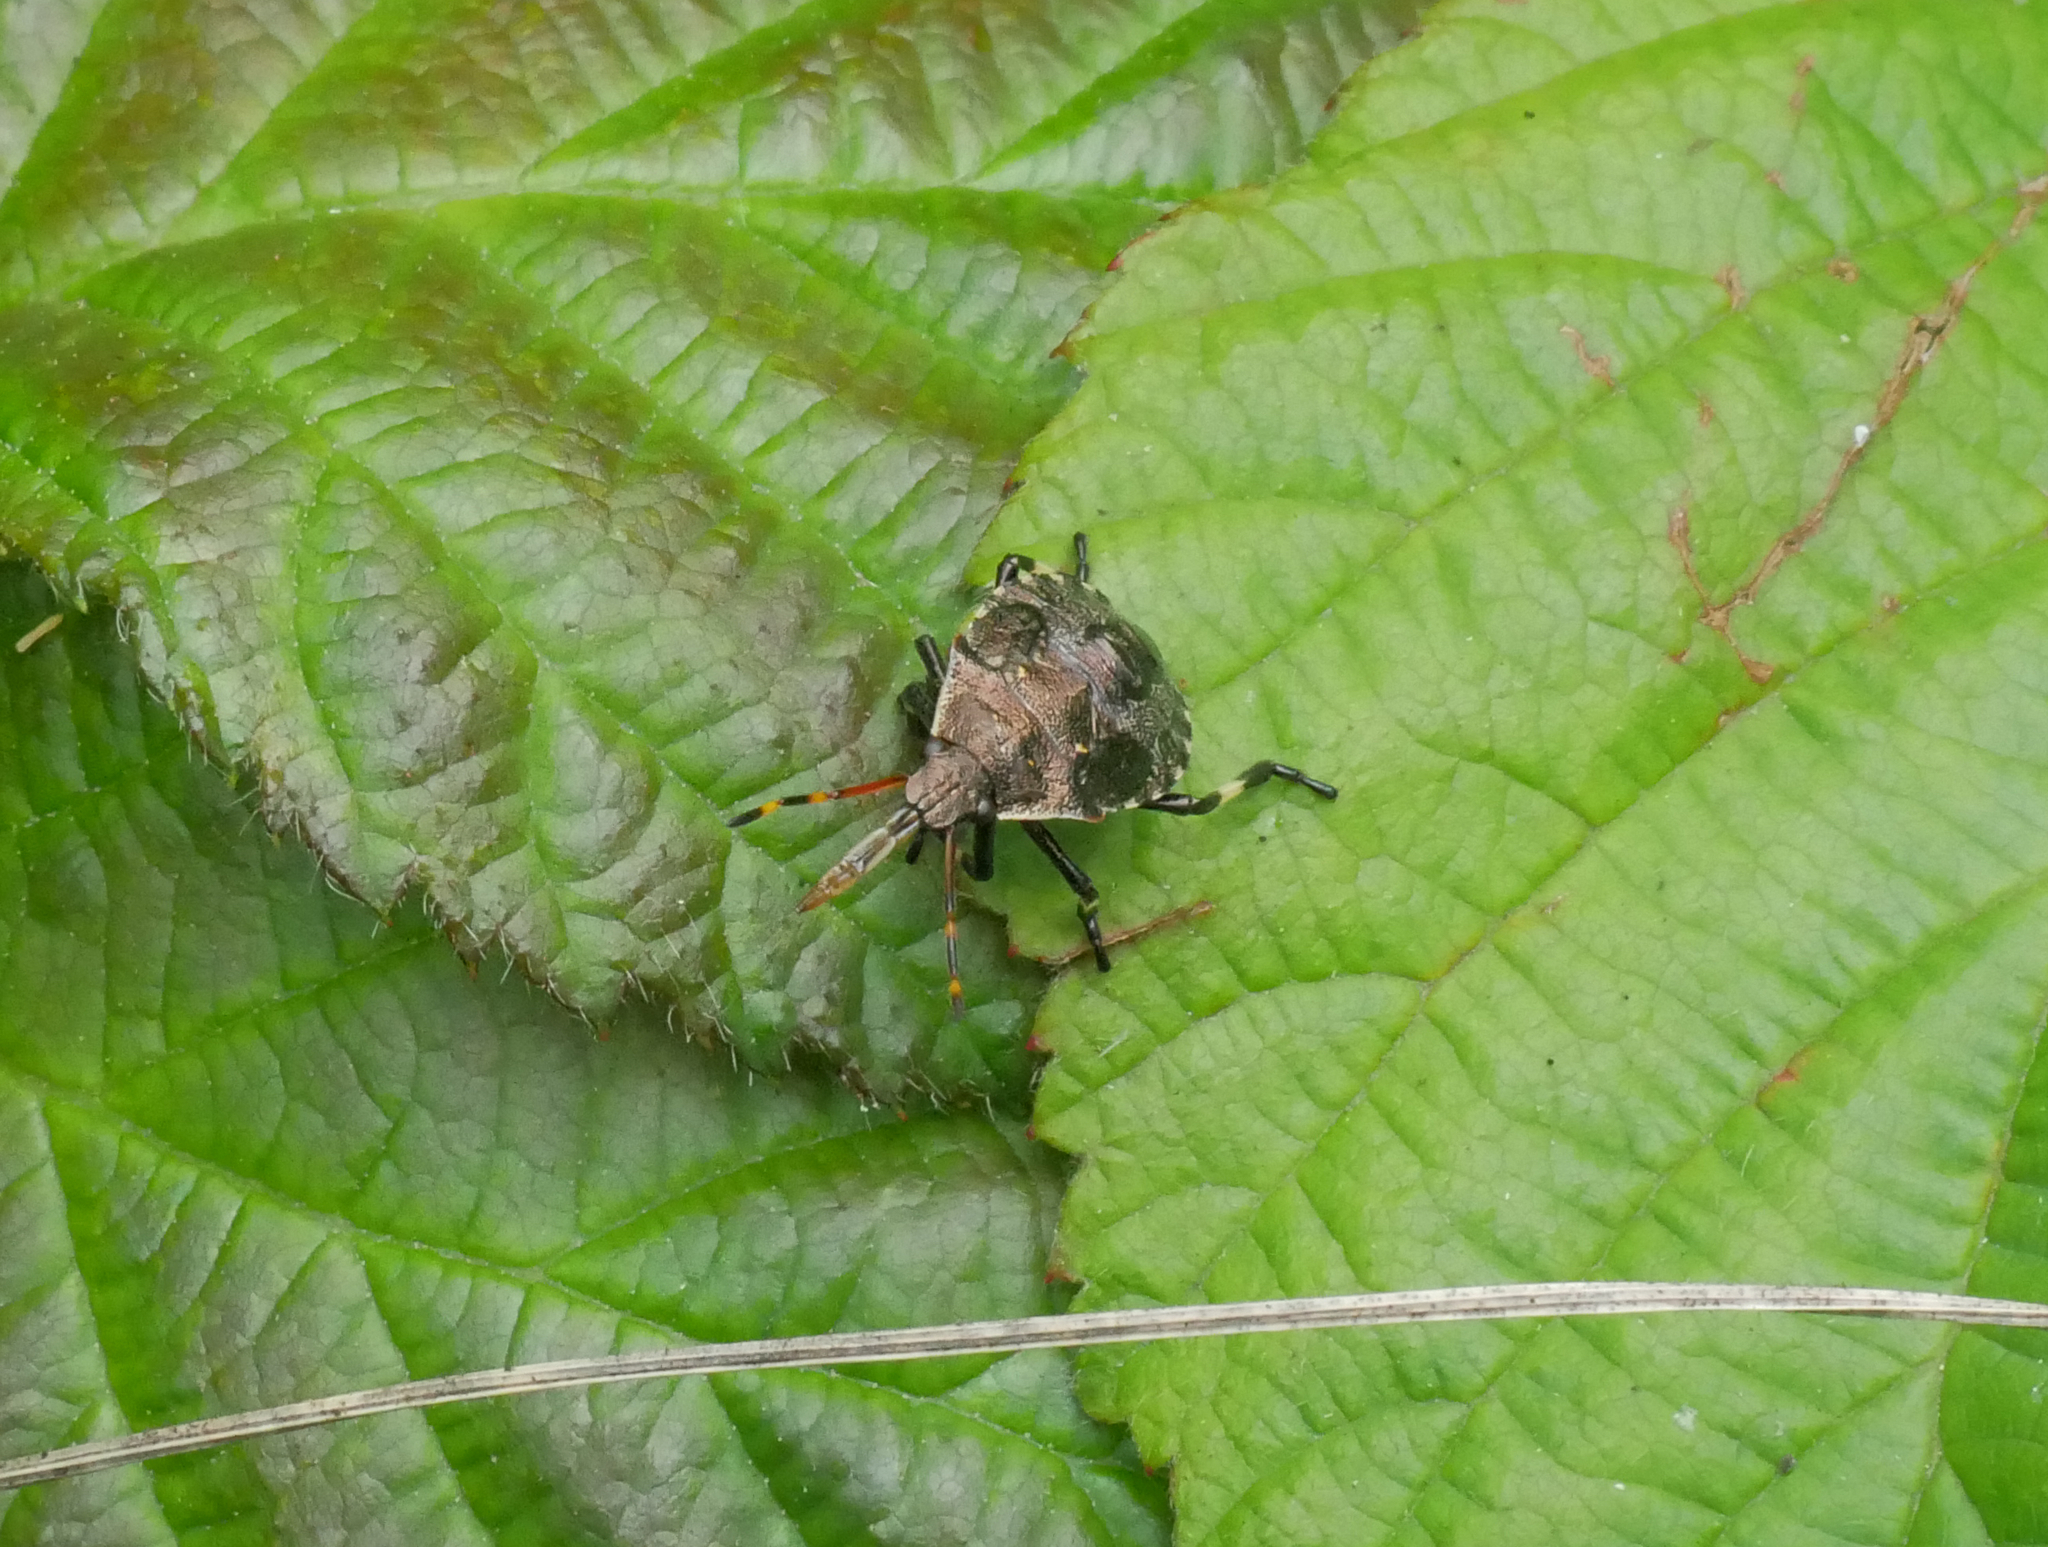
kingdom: Animalia
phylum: Arthropoda
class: Insecta
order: Hemiptera
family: Pentatomidae
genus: Picromerus
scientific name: Picromerus bidens
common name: Spiked shieldbug
